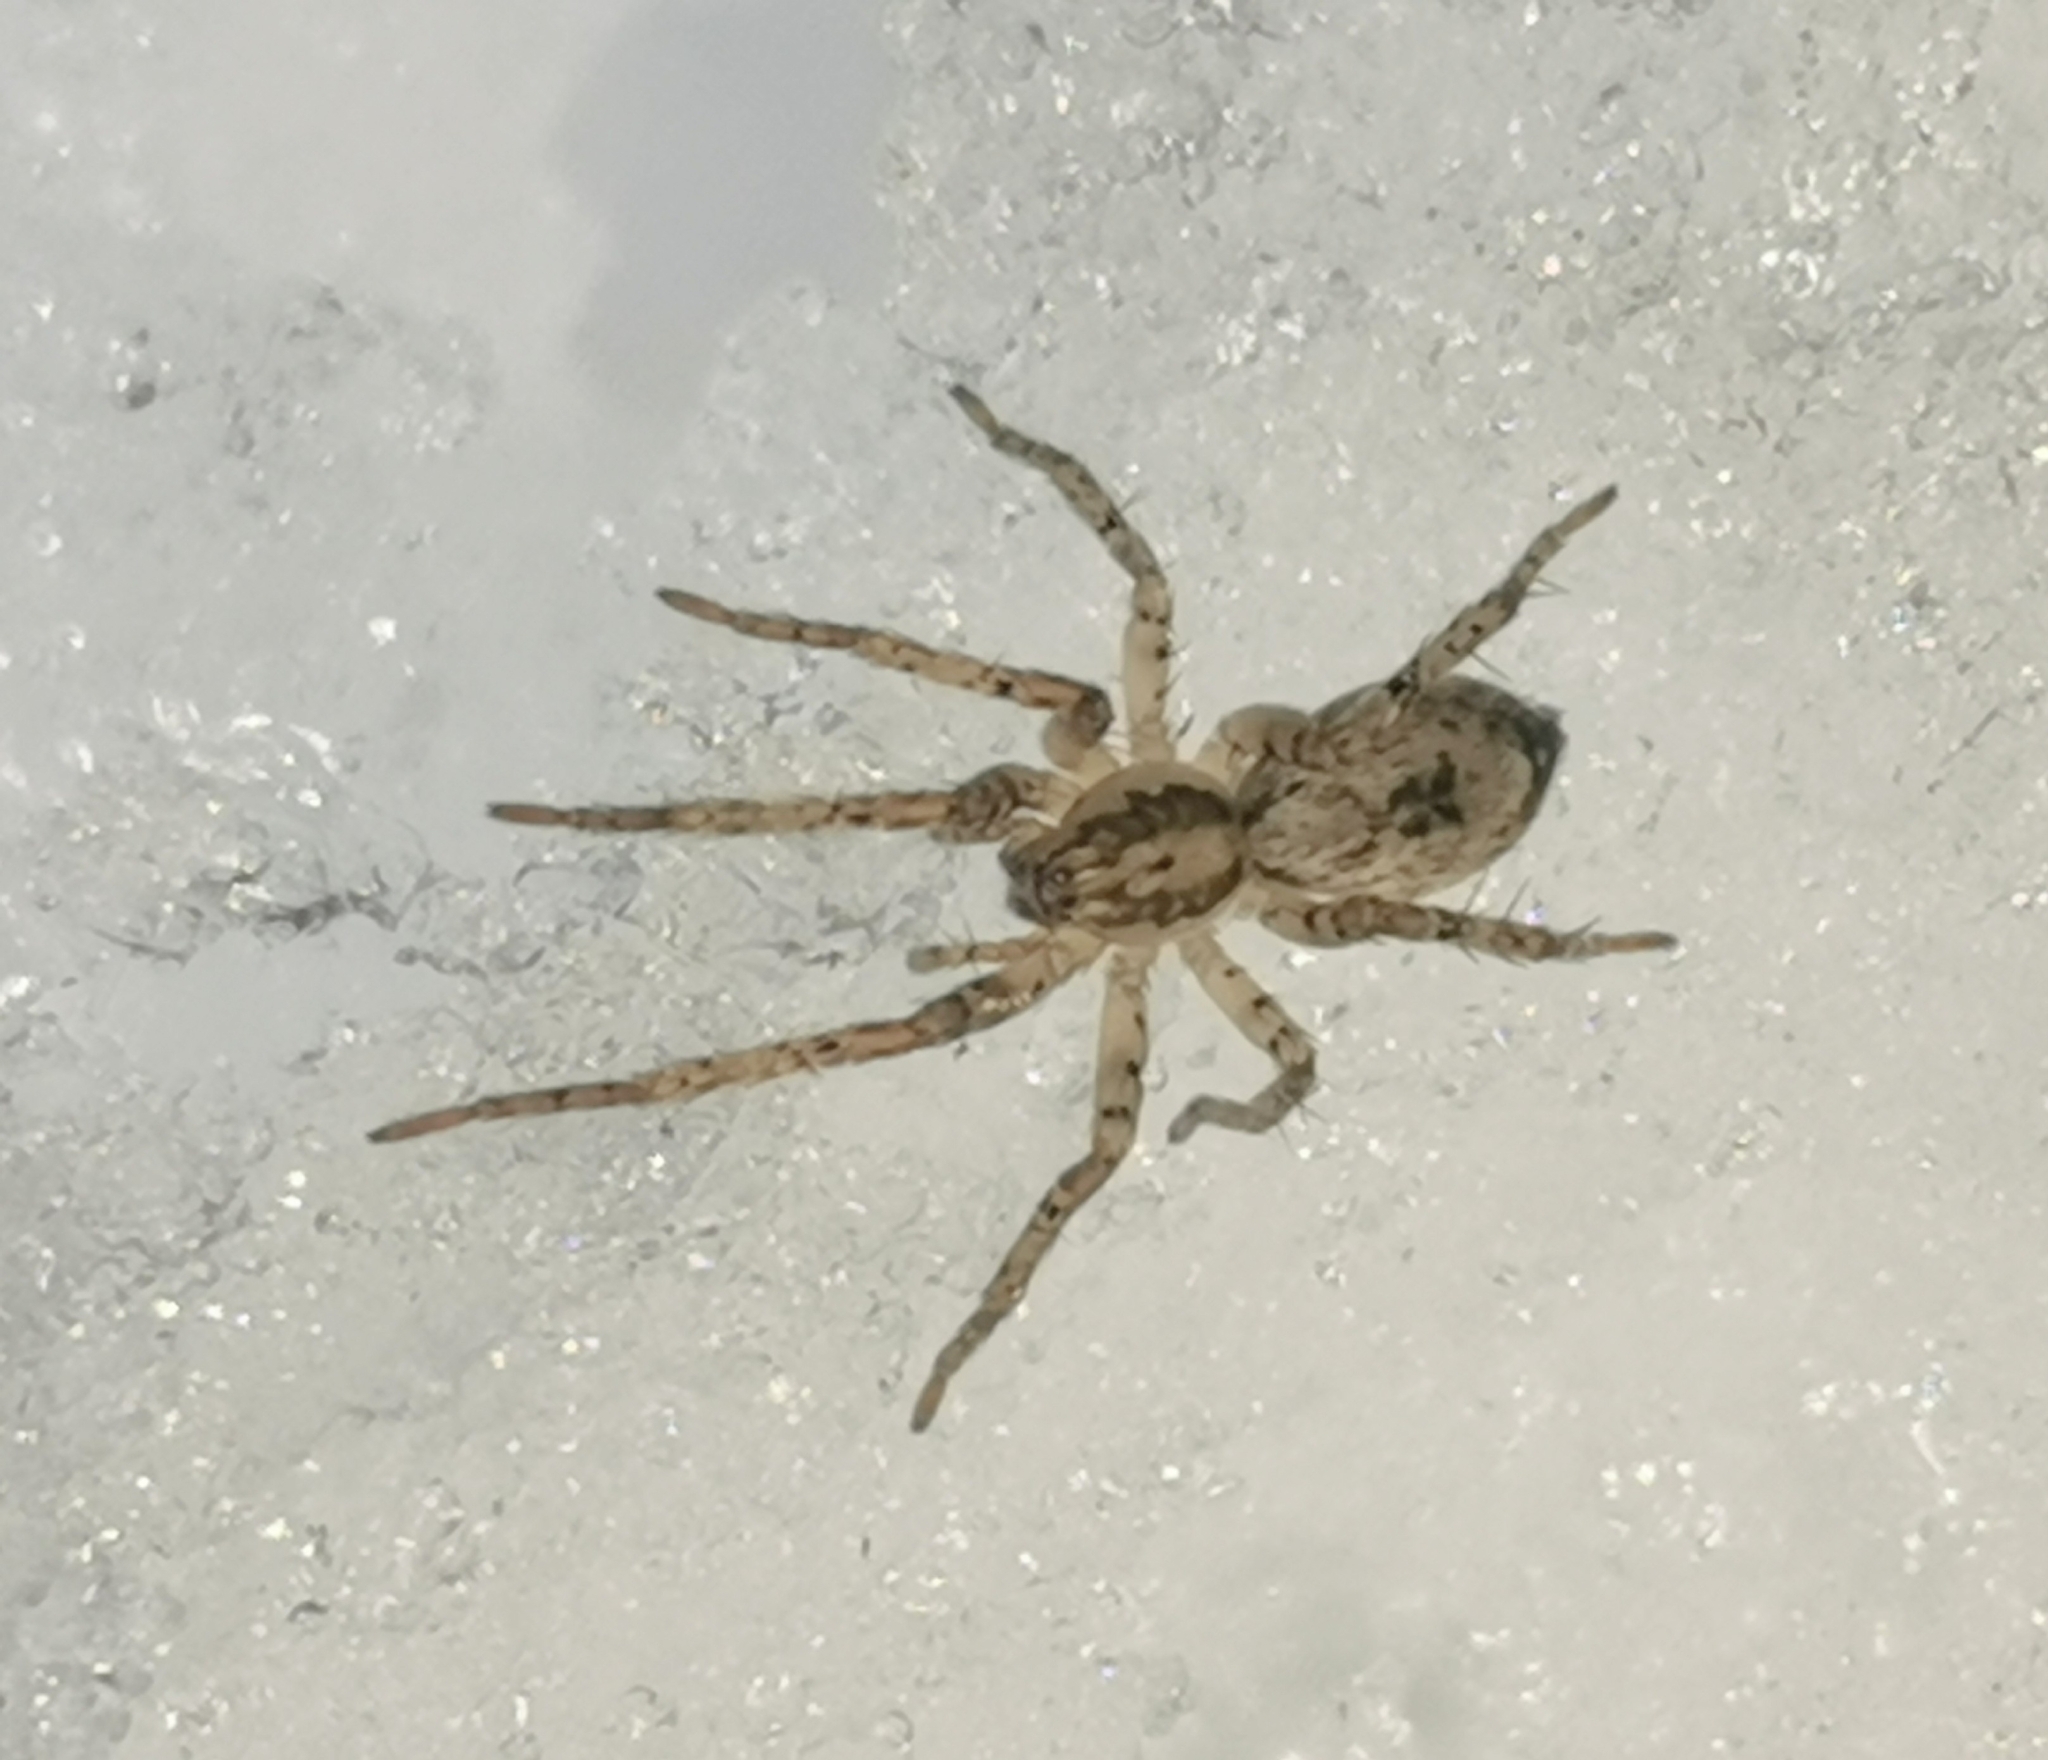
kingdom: Animalia
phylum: Arthropoda
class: Arachnida
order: Araneae
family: Anyphaenidae
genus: Anyphaena
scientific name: Anyphaena accentuata
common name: Buzzing spider
